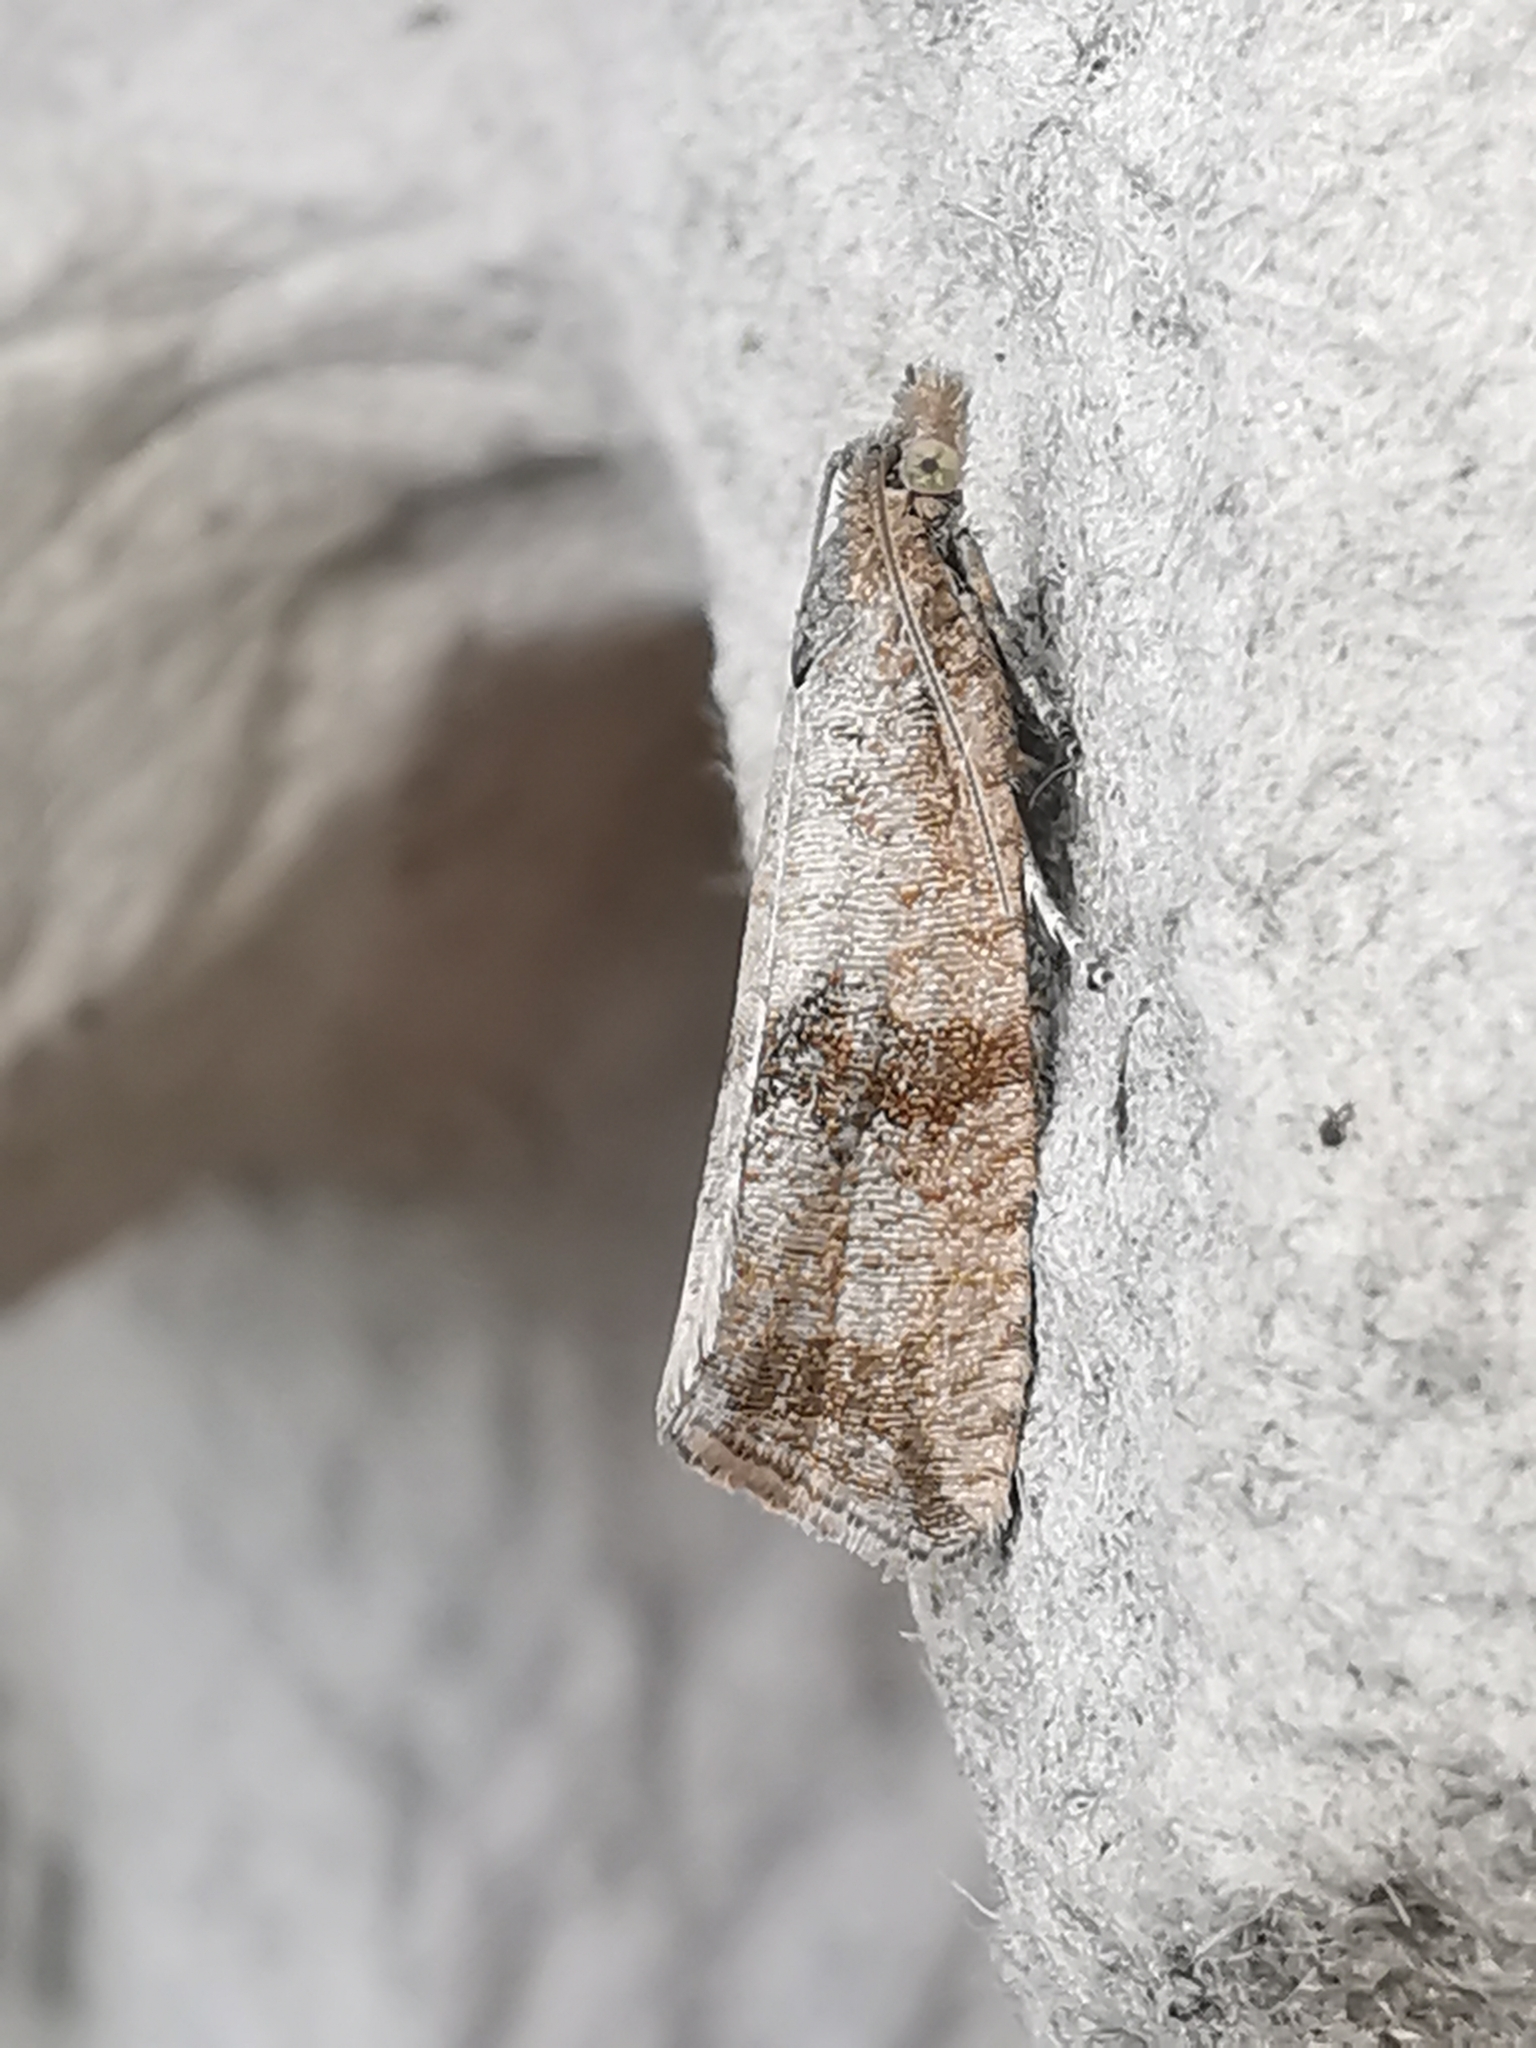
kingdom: Animalia
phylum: Arthropoda
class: Insecta
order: Lepidoptera
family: Tortricidae
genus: Celypha
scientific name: Celypha striana
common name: Barred marble
